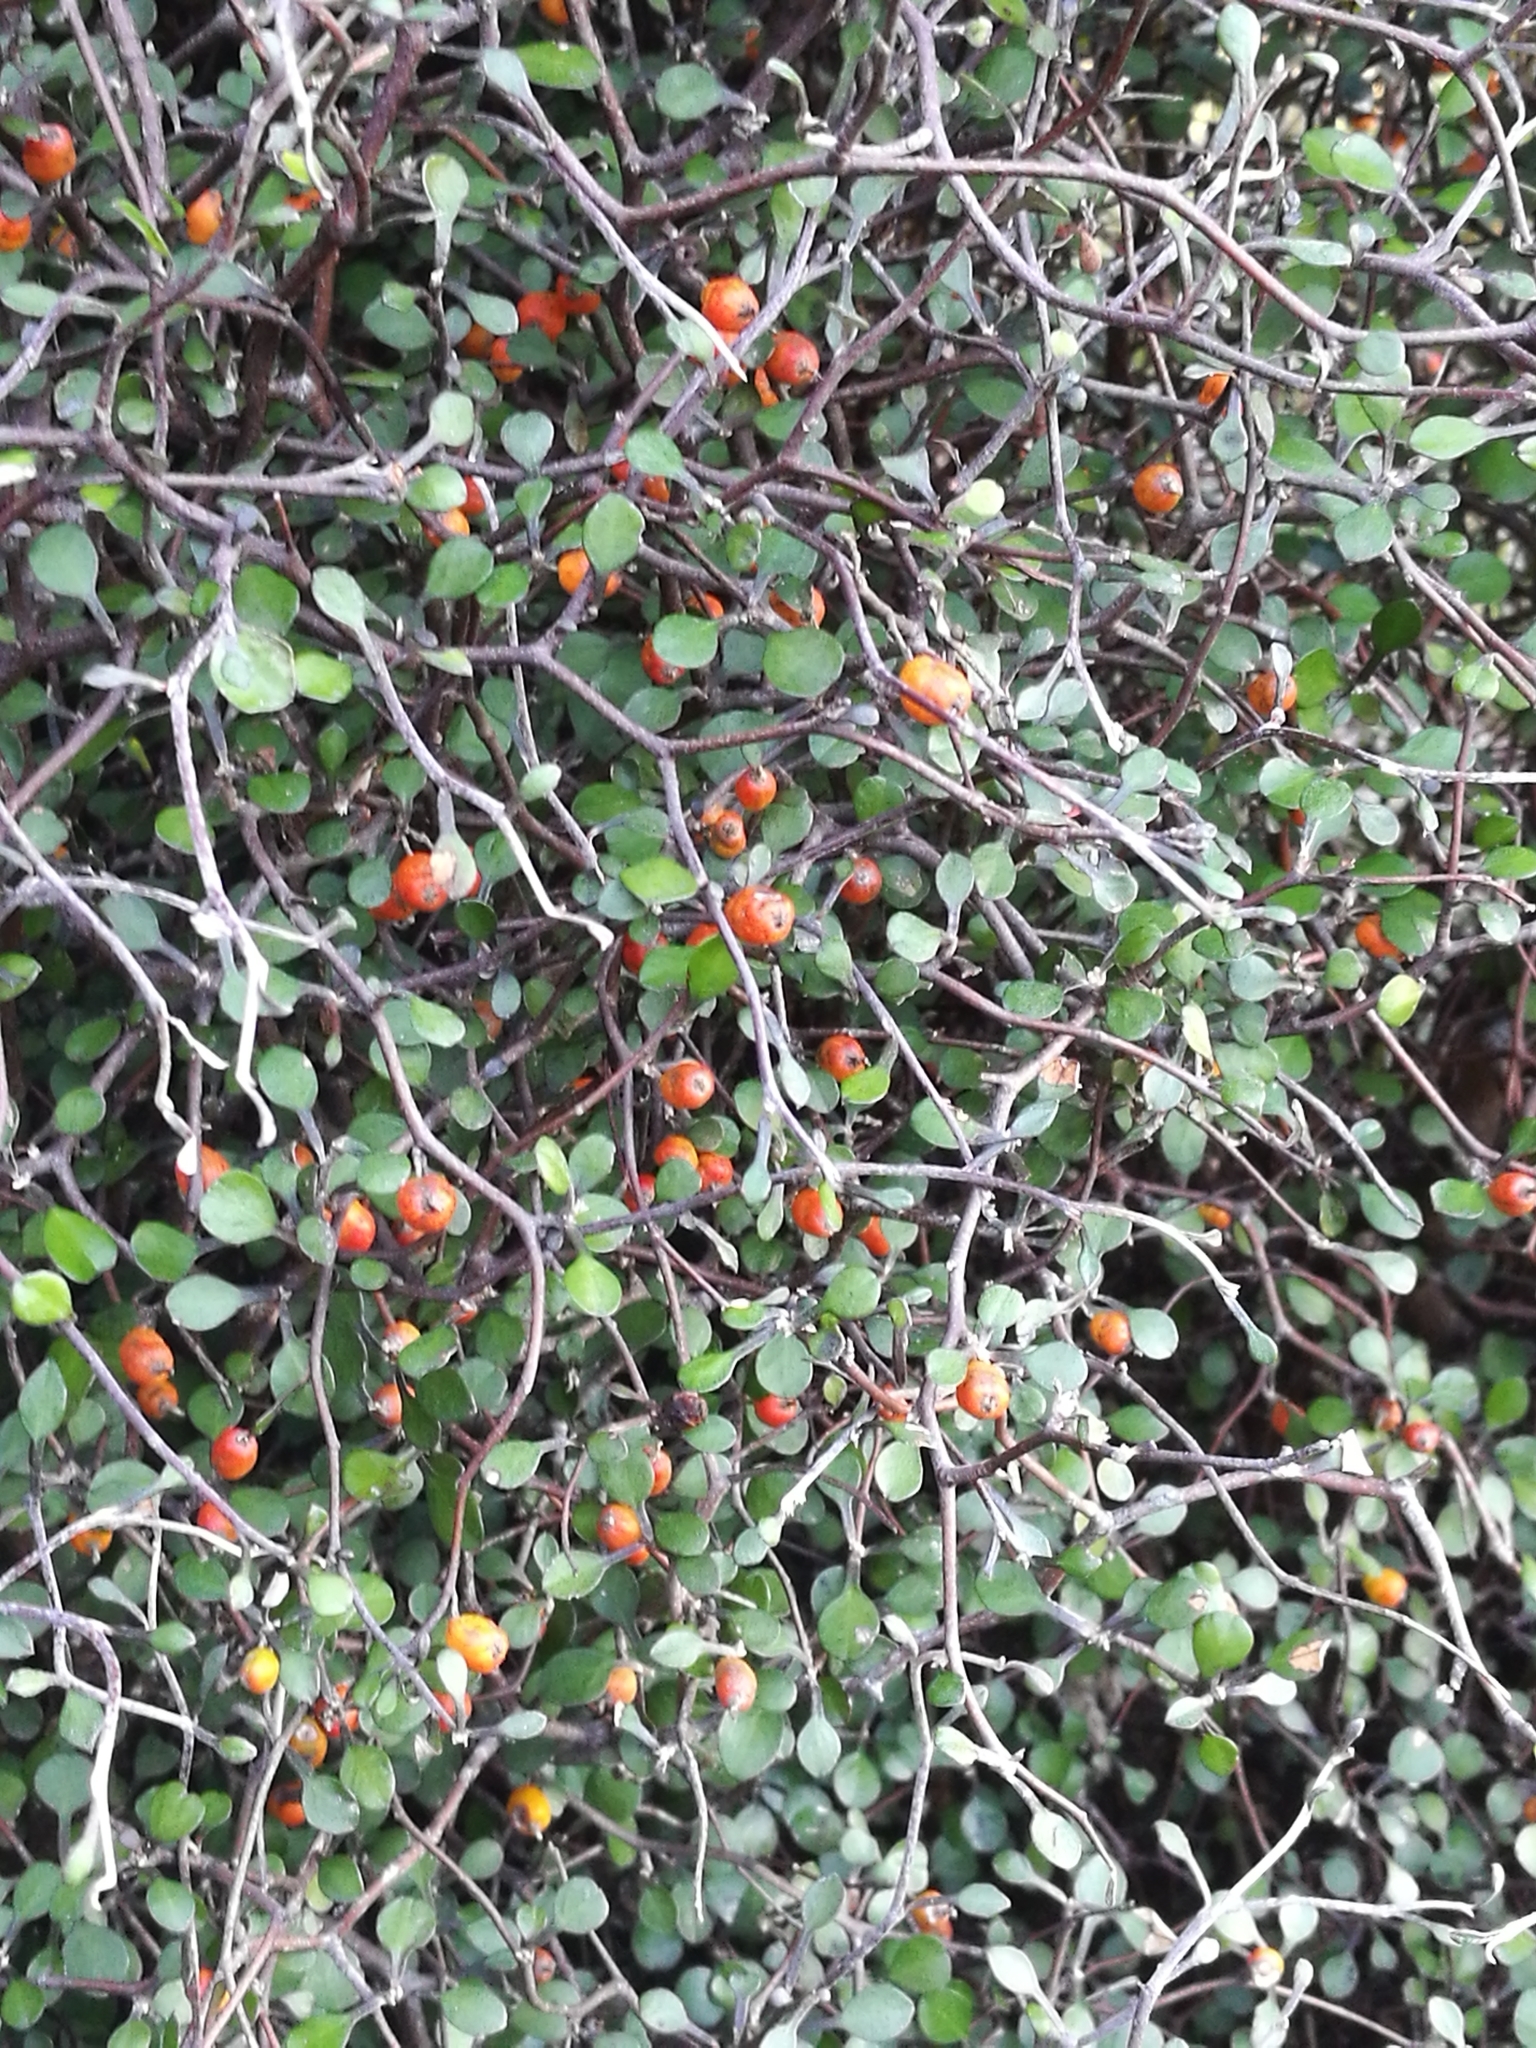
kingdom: Plantae
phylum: Tracheophyta
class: Magnoliopsida
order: Asterales
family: Argophyllaceae
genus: Corokia
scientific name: Corokia cotoneaster
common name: Wire nettingbush
